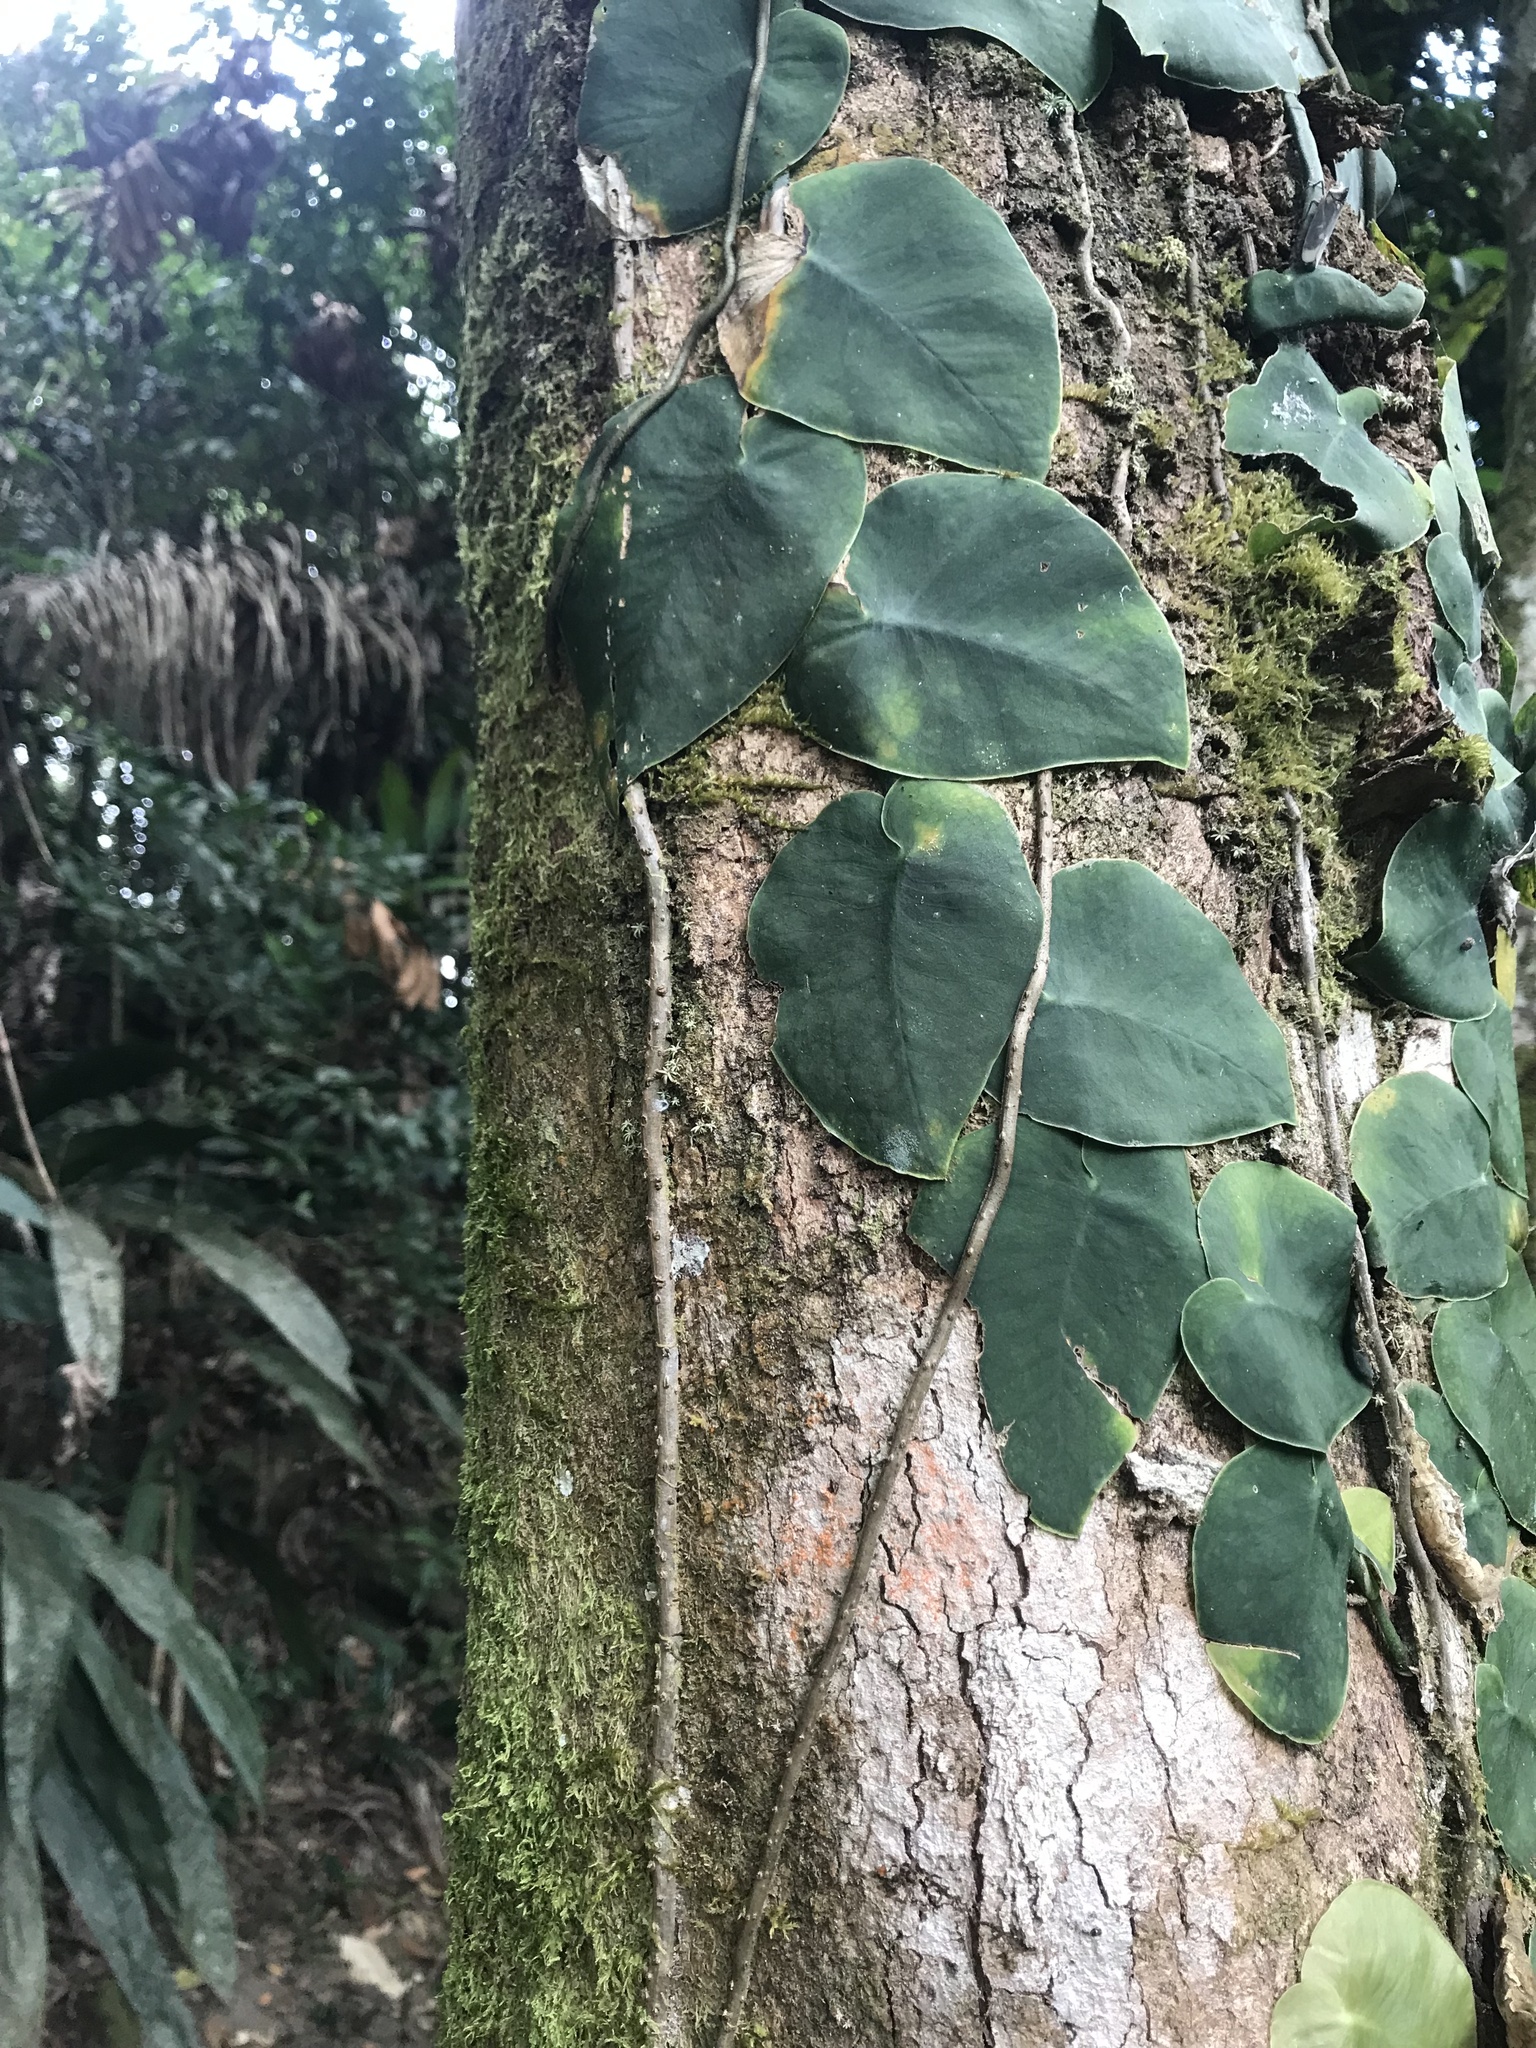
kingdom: Plantae
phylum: Tracheophyta
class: Liliopsida
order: Alismatales
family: Araceae
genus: Monstera
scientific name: Monstera dubia
